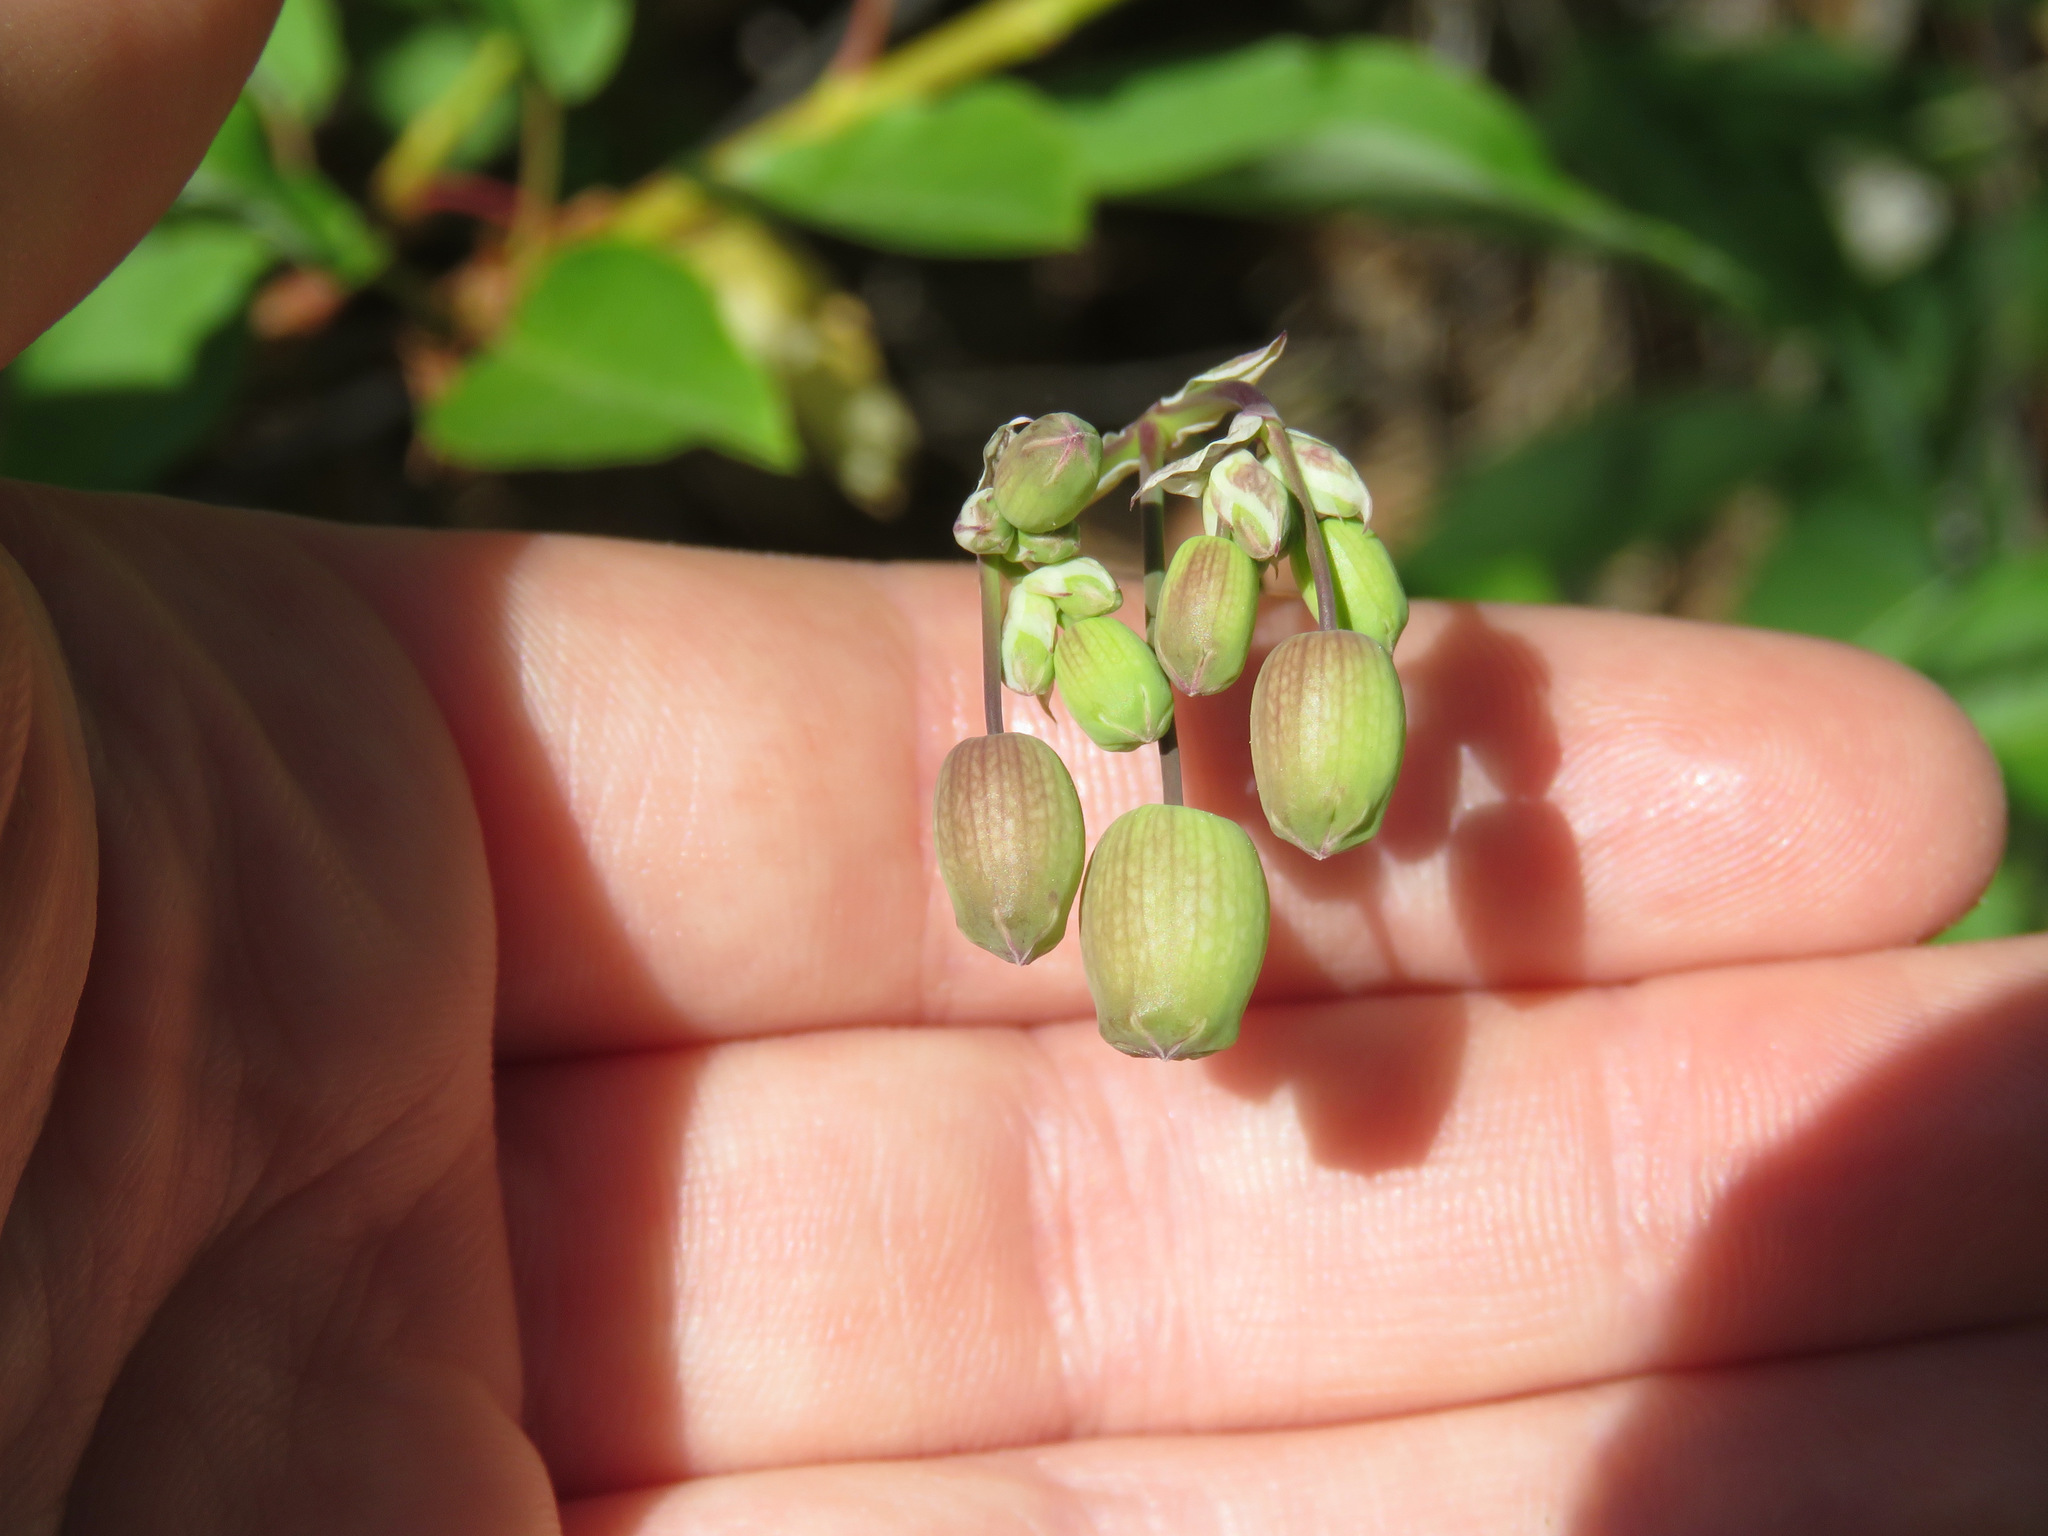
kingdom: Plantae
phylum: Tracheophyta
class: Magnoliopsida
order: Caryophyllales
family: Caryophyllaceae
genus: Silene
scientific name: Silene vulgaris
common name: Bladder campion
